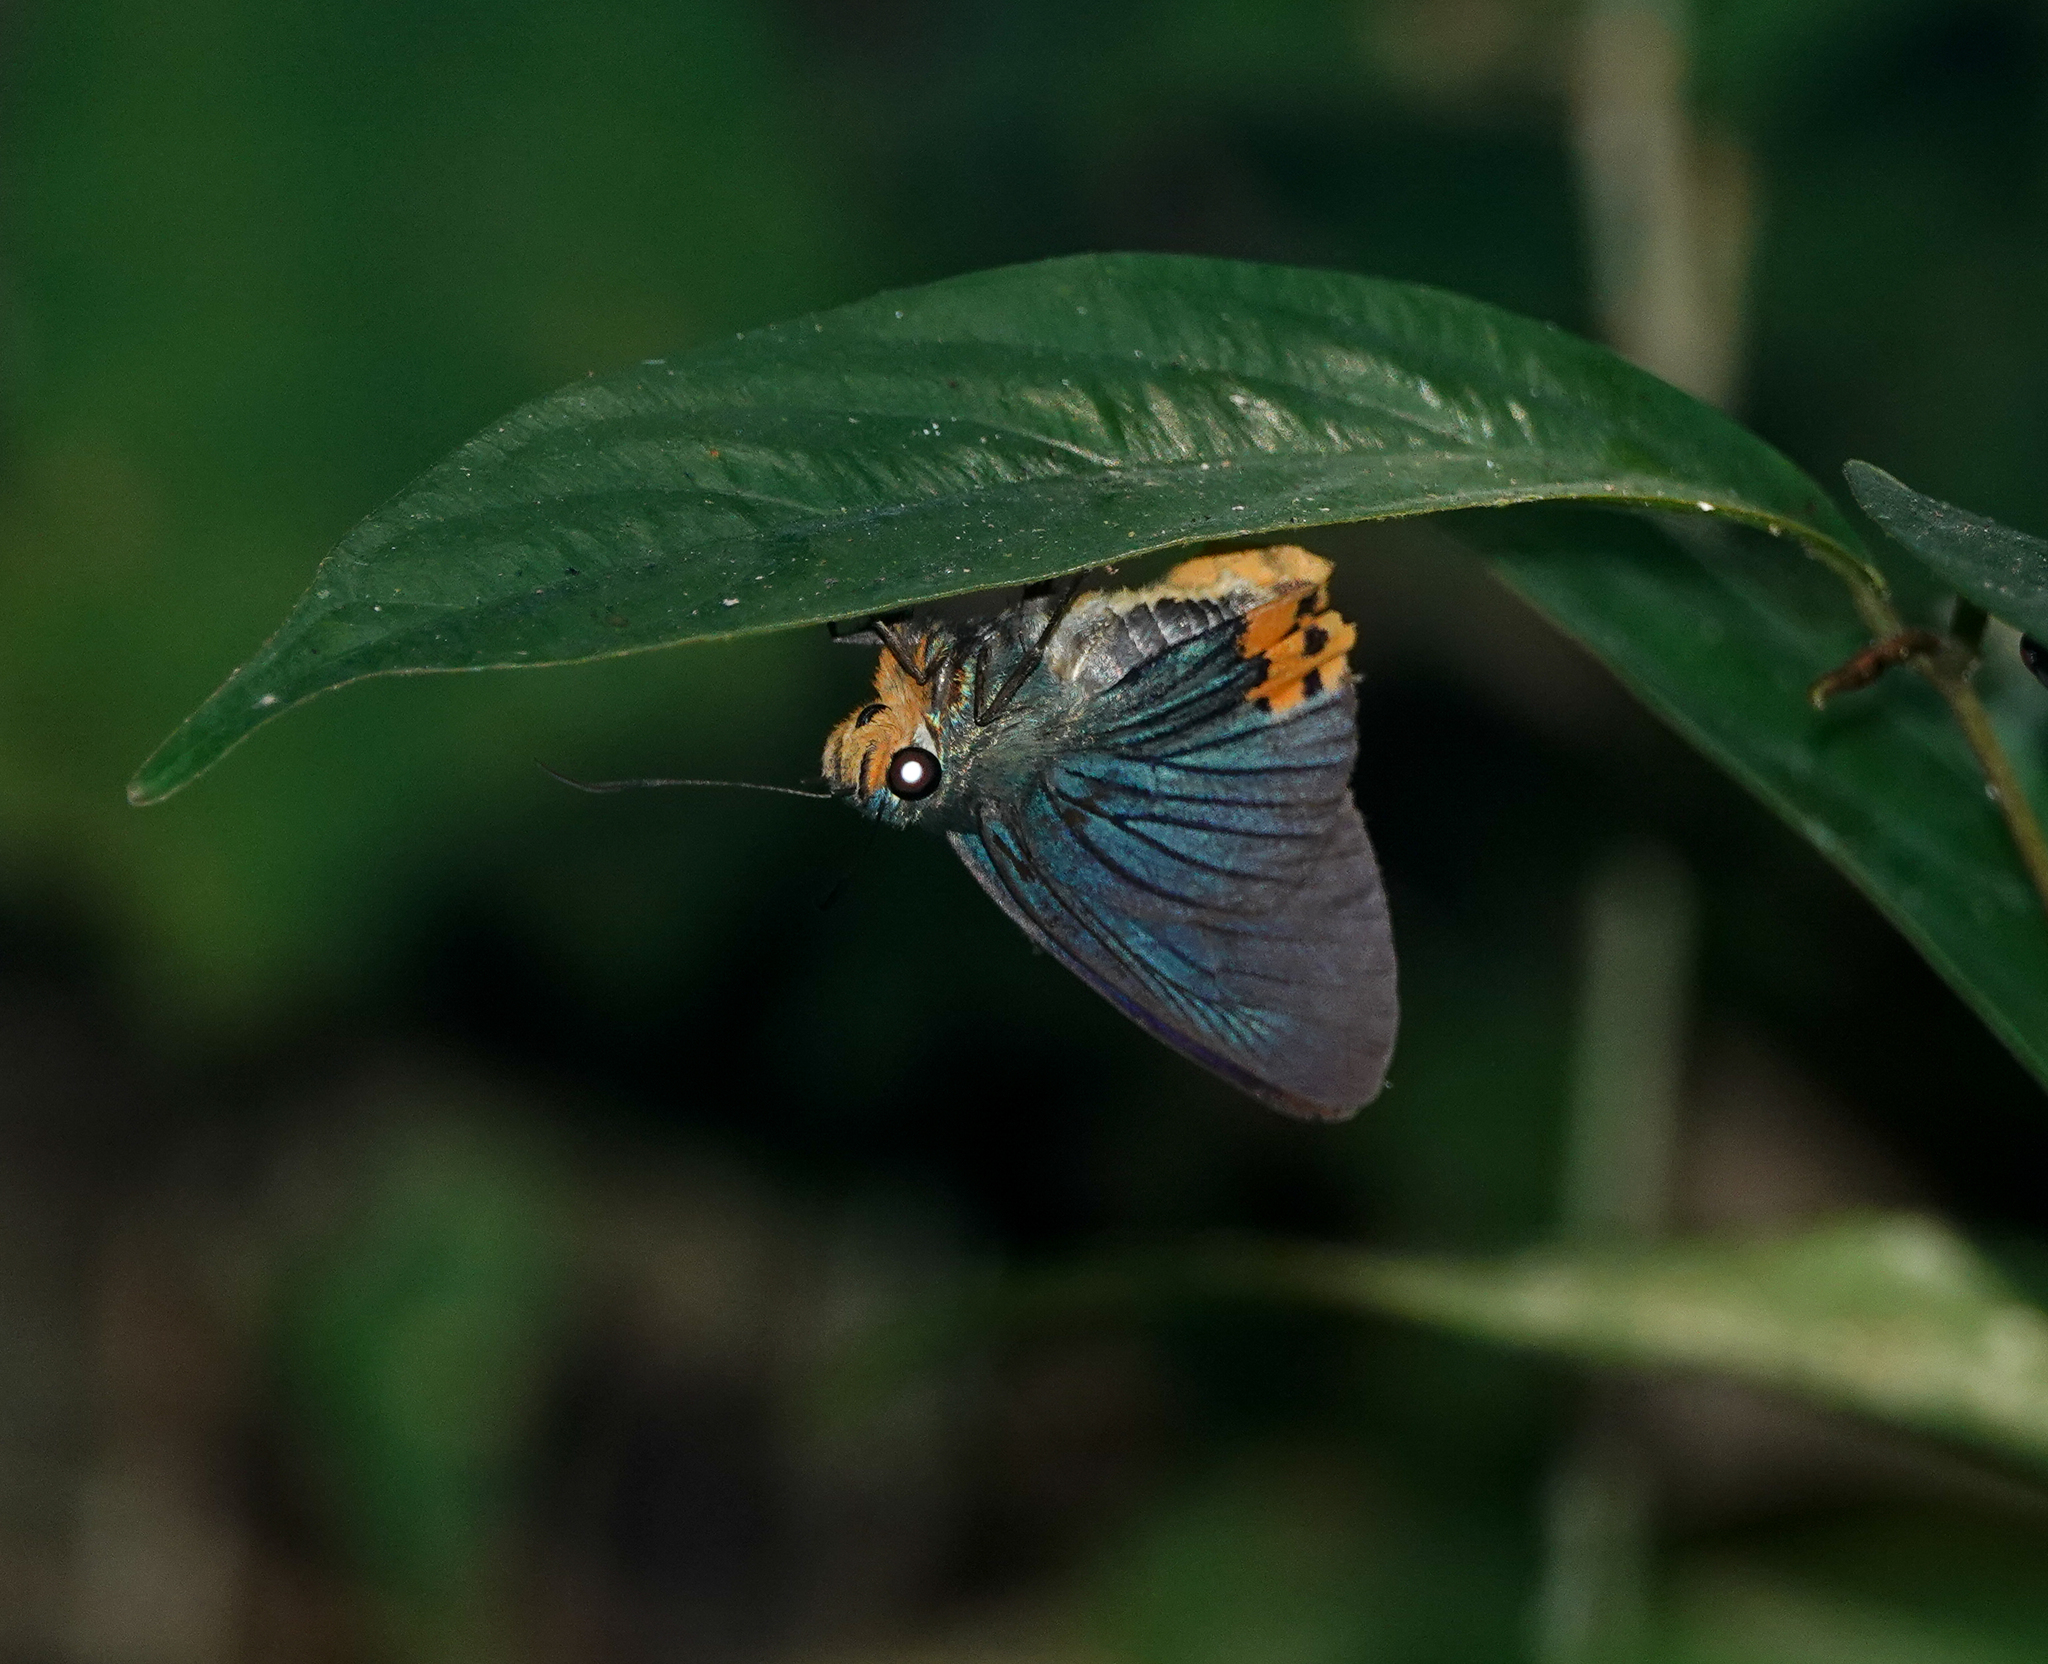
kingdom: Animalia
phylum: Arthropoda
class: Insecta
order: Lepidoptera
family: Hesperiidae
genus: Choaspes
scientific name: Choaspes benjaminii
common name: Indian awlking
